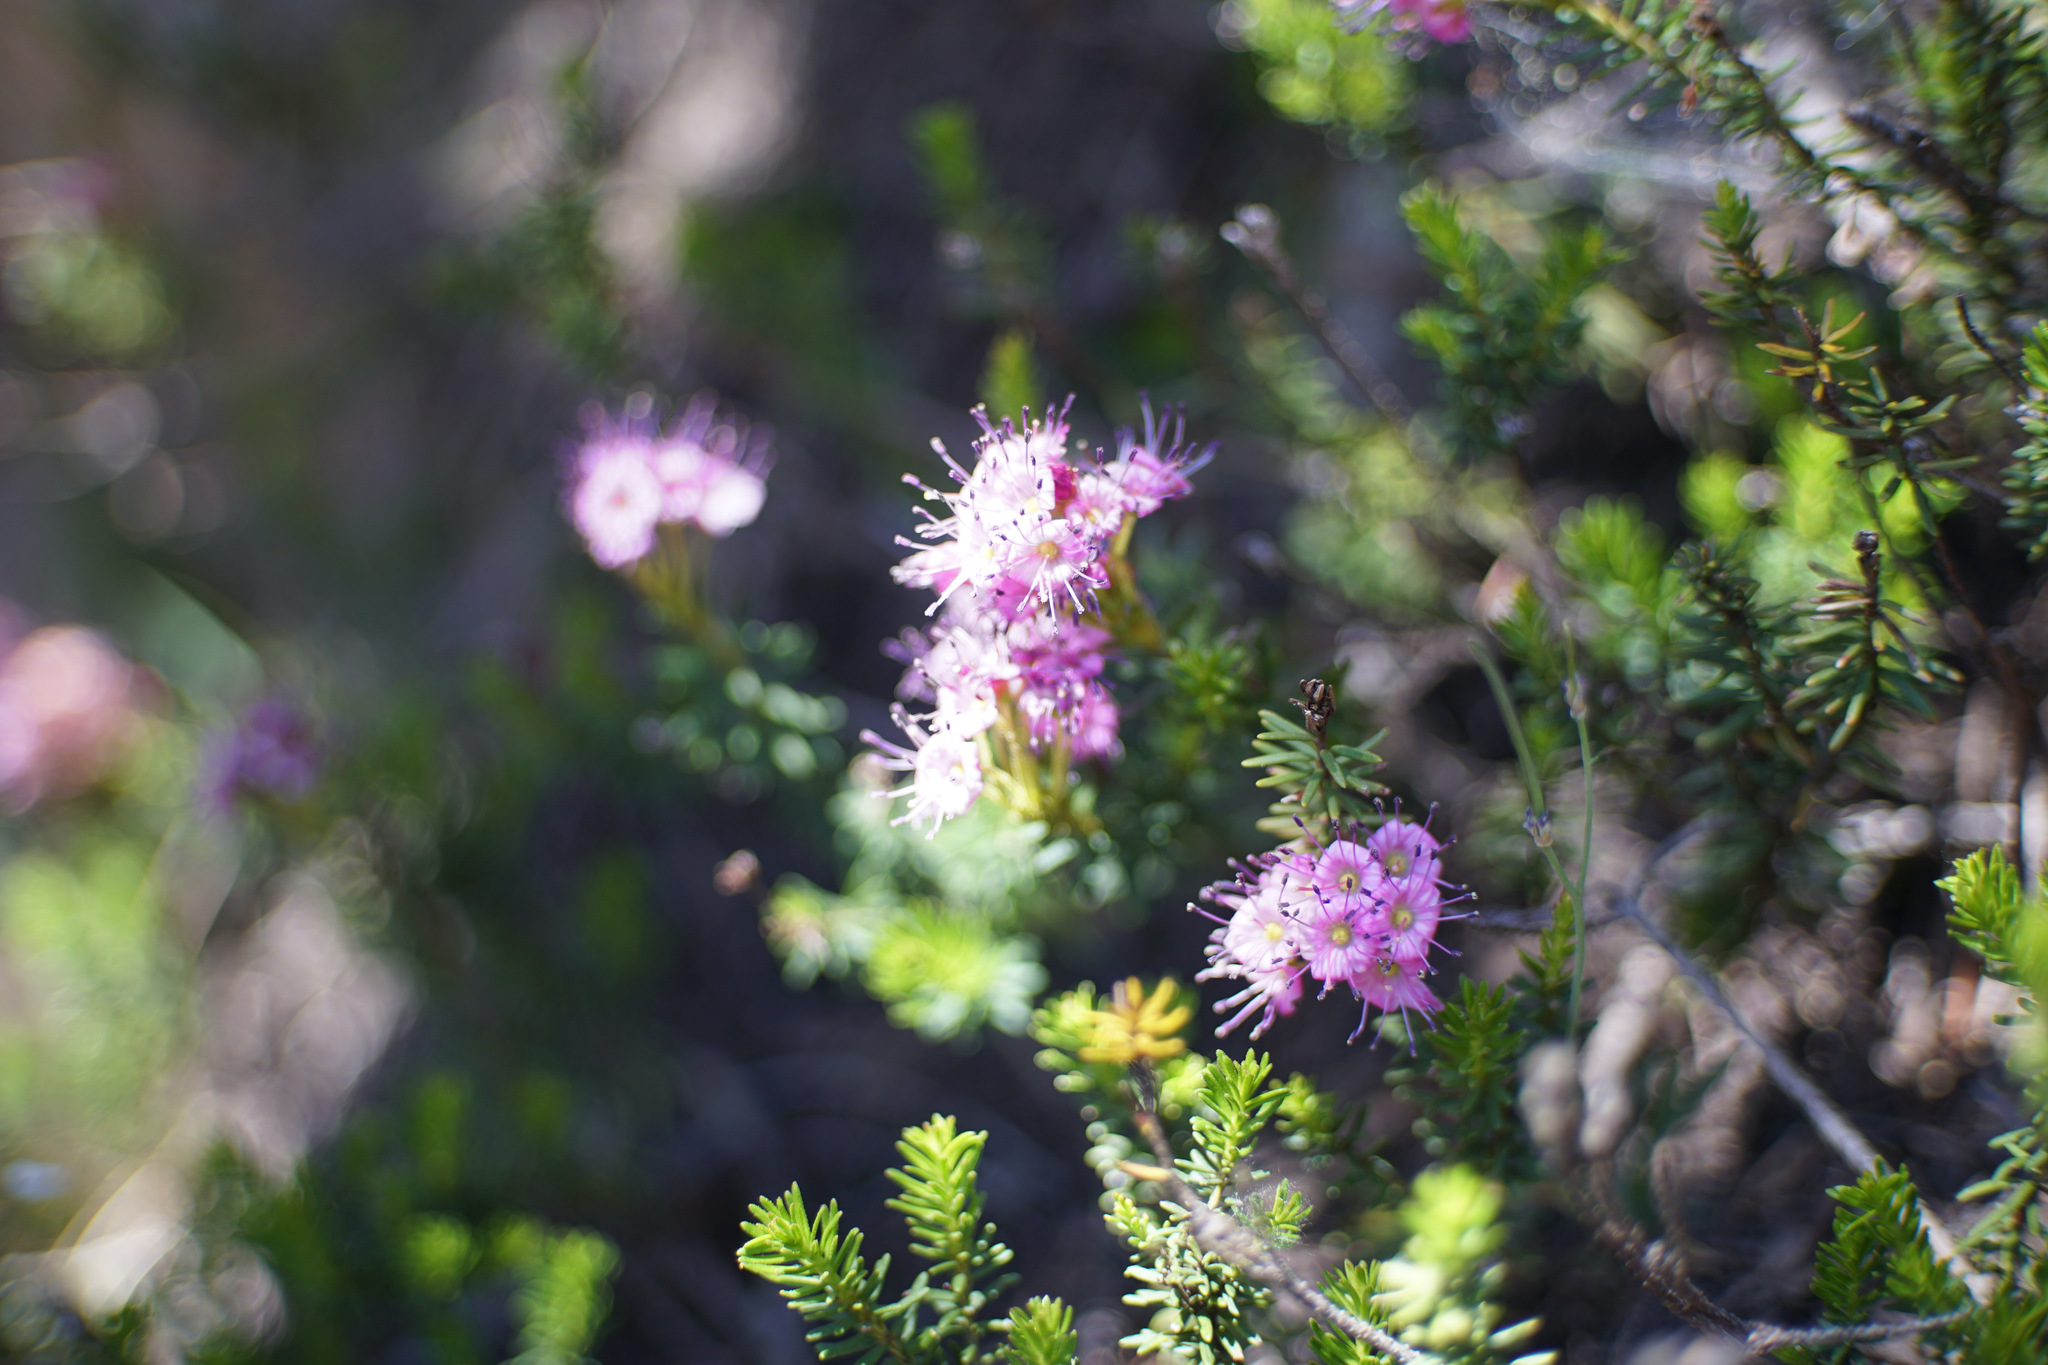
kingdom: Plantae
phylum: Tracheophyta
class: Magnoliopsida
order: Ericales
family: Ericaceae
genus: Phyllodoce
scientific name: Phyllodoce breweri
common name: Brewer's mountain-heather
